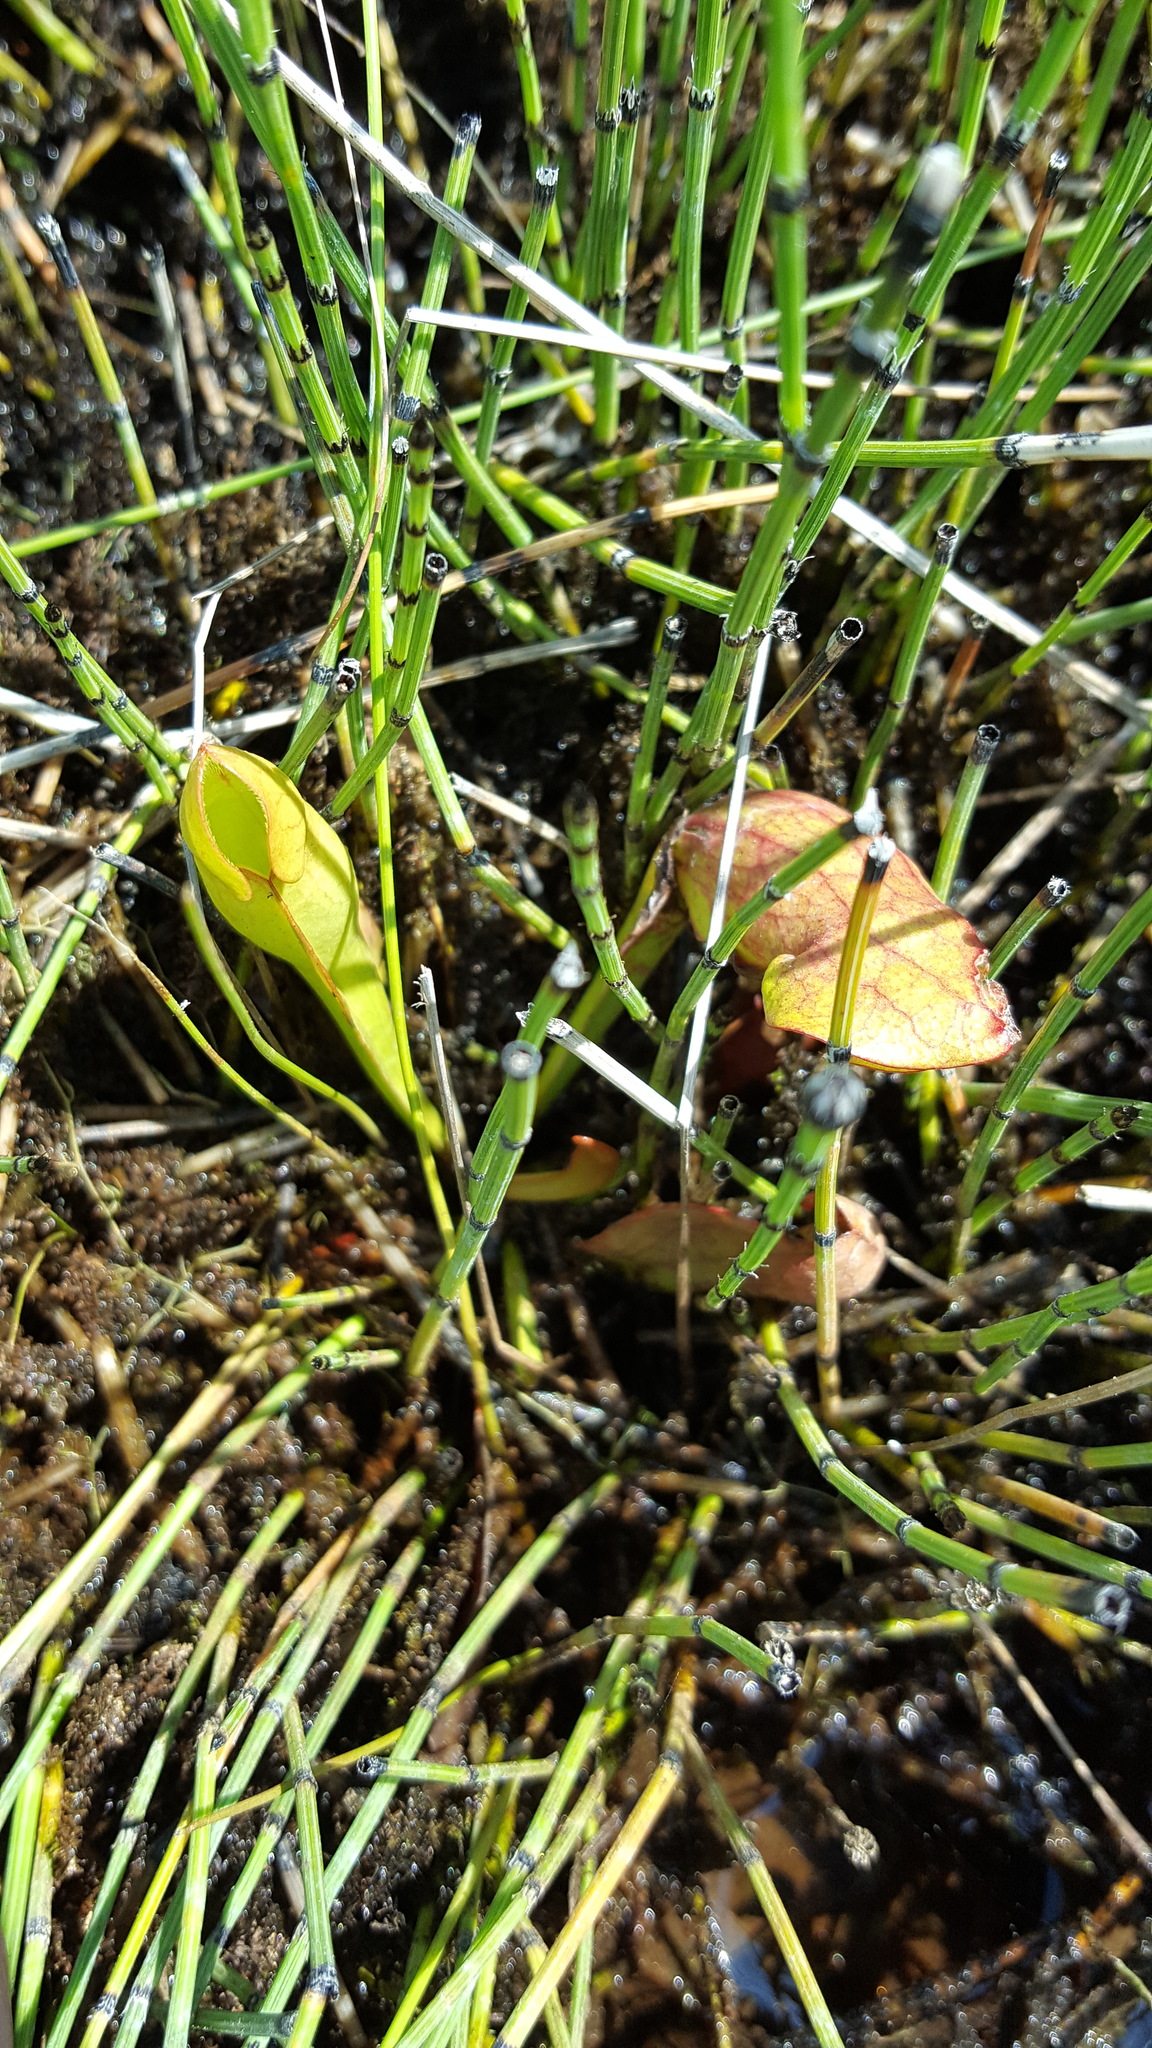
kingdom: Plantae
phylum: Tracheophyta
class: Magnoliopsida
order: Ericales
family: Sarraceniaceae
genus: Sarracenia
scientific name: Sarracenia purpurea
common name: Pitcherplant
